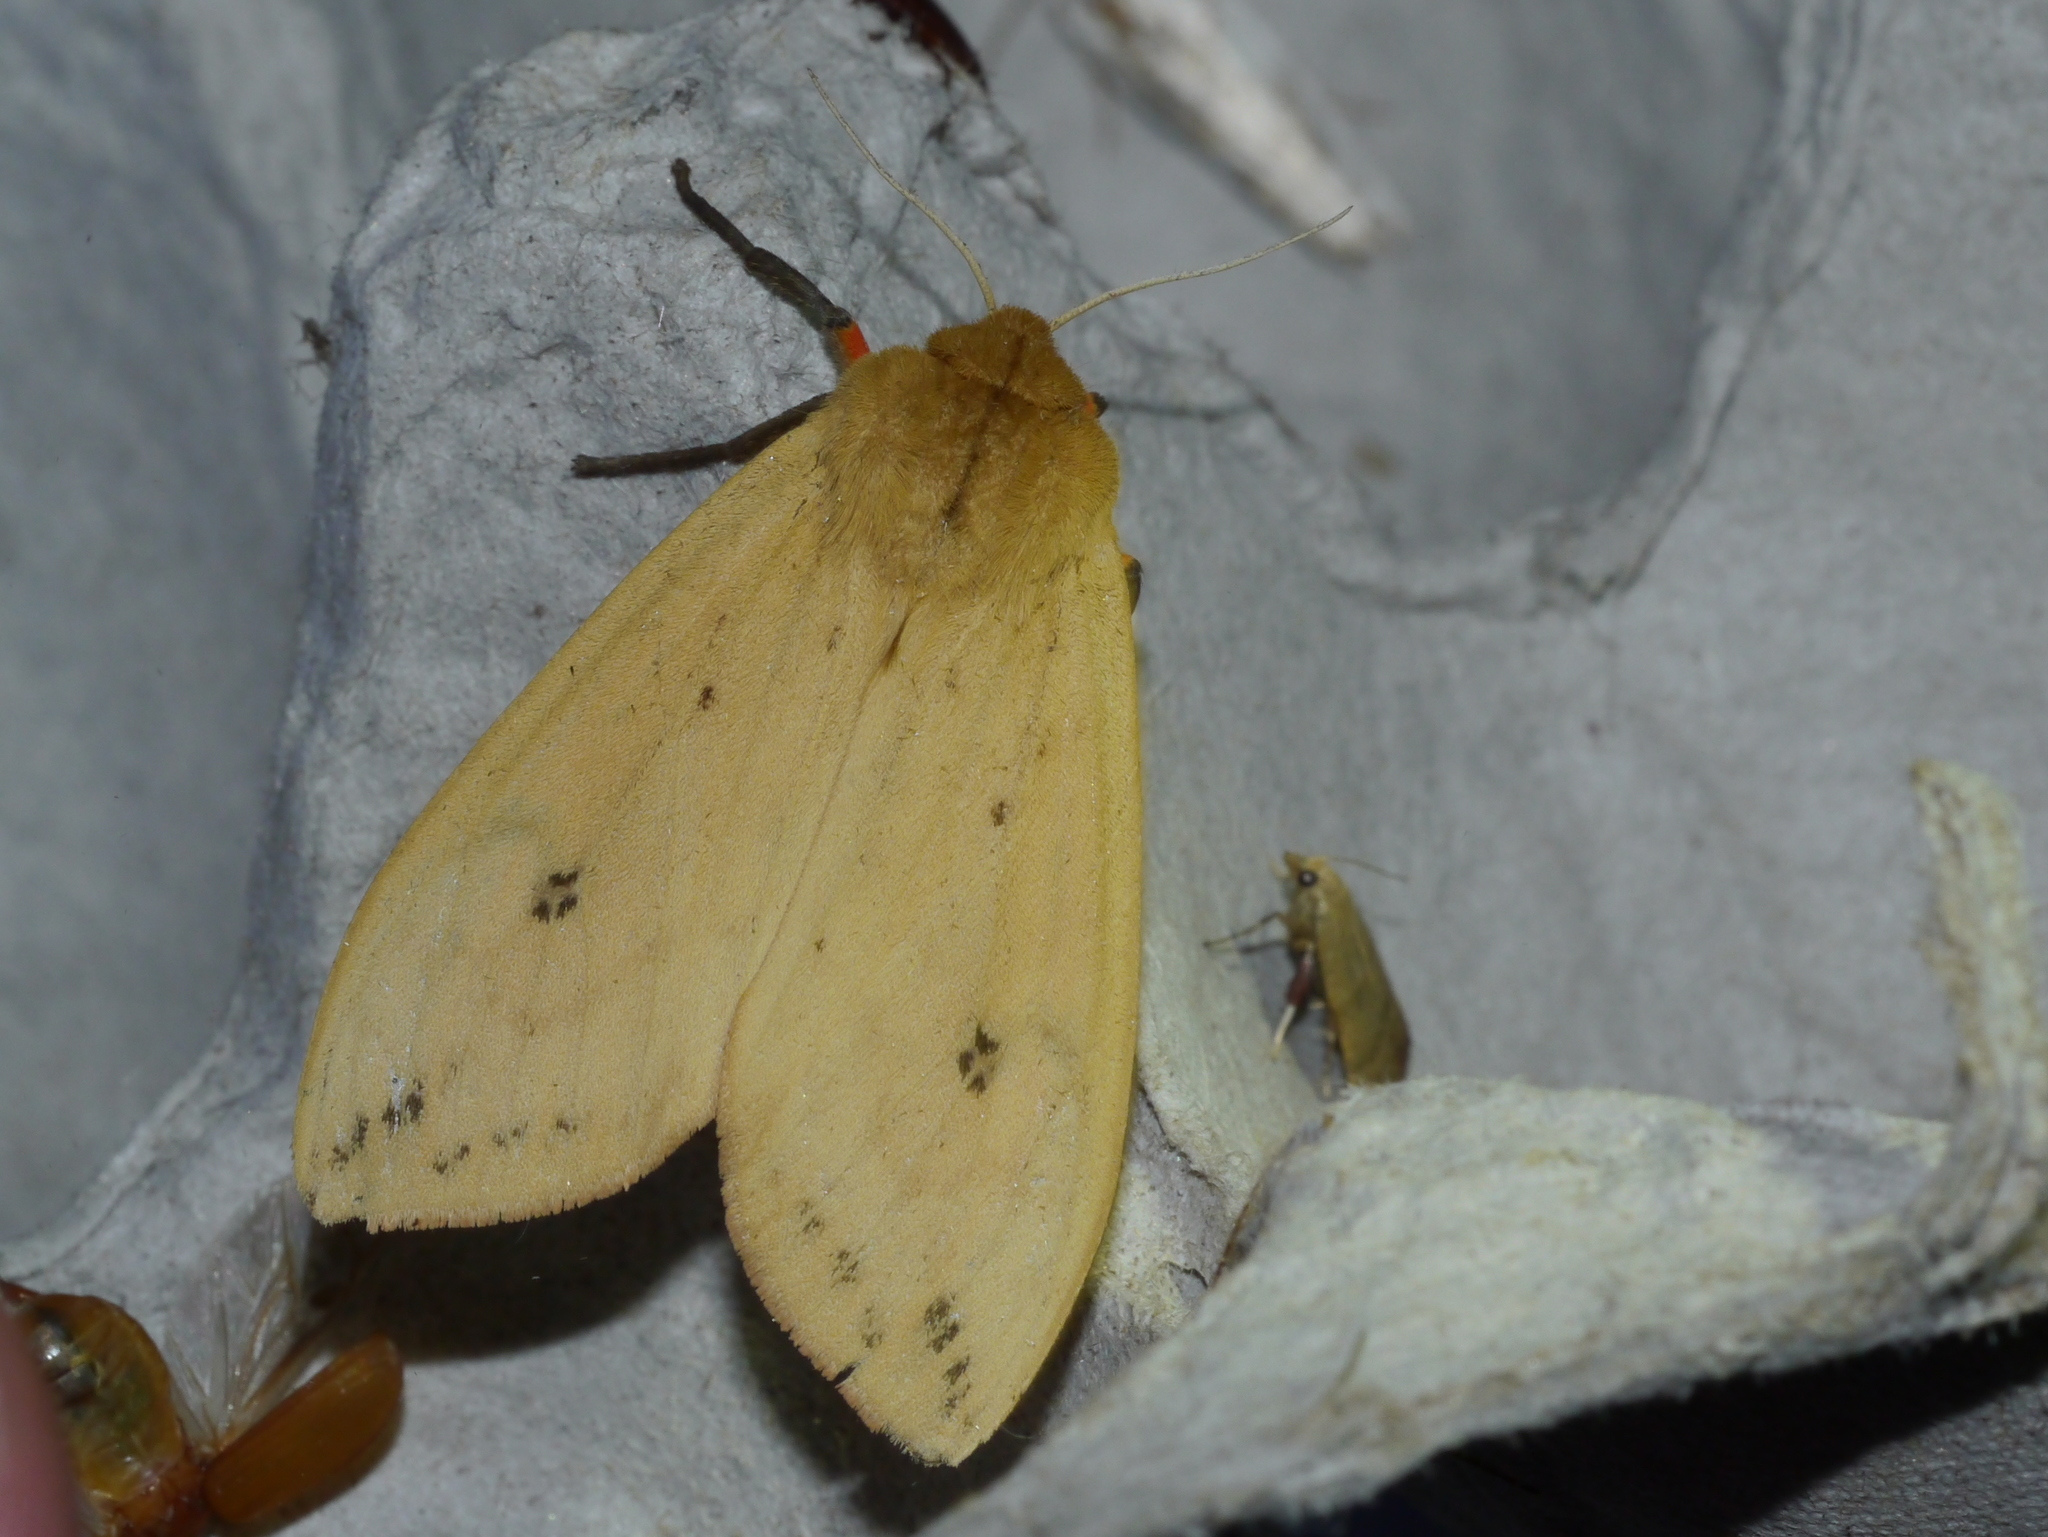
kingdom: Animalia
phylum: Arthropoda
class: Insecta
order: Lepidoptera
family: Erebidae
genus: Pyrrharctia
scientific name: Pyrrharctia isabella
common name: Isabella tiger moth
